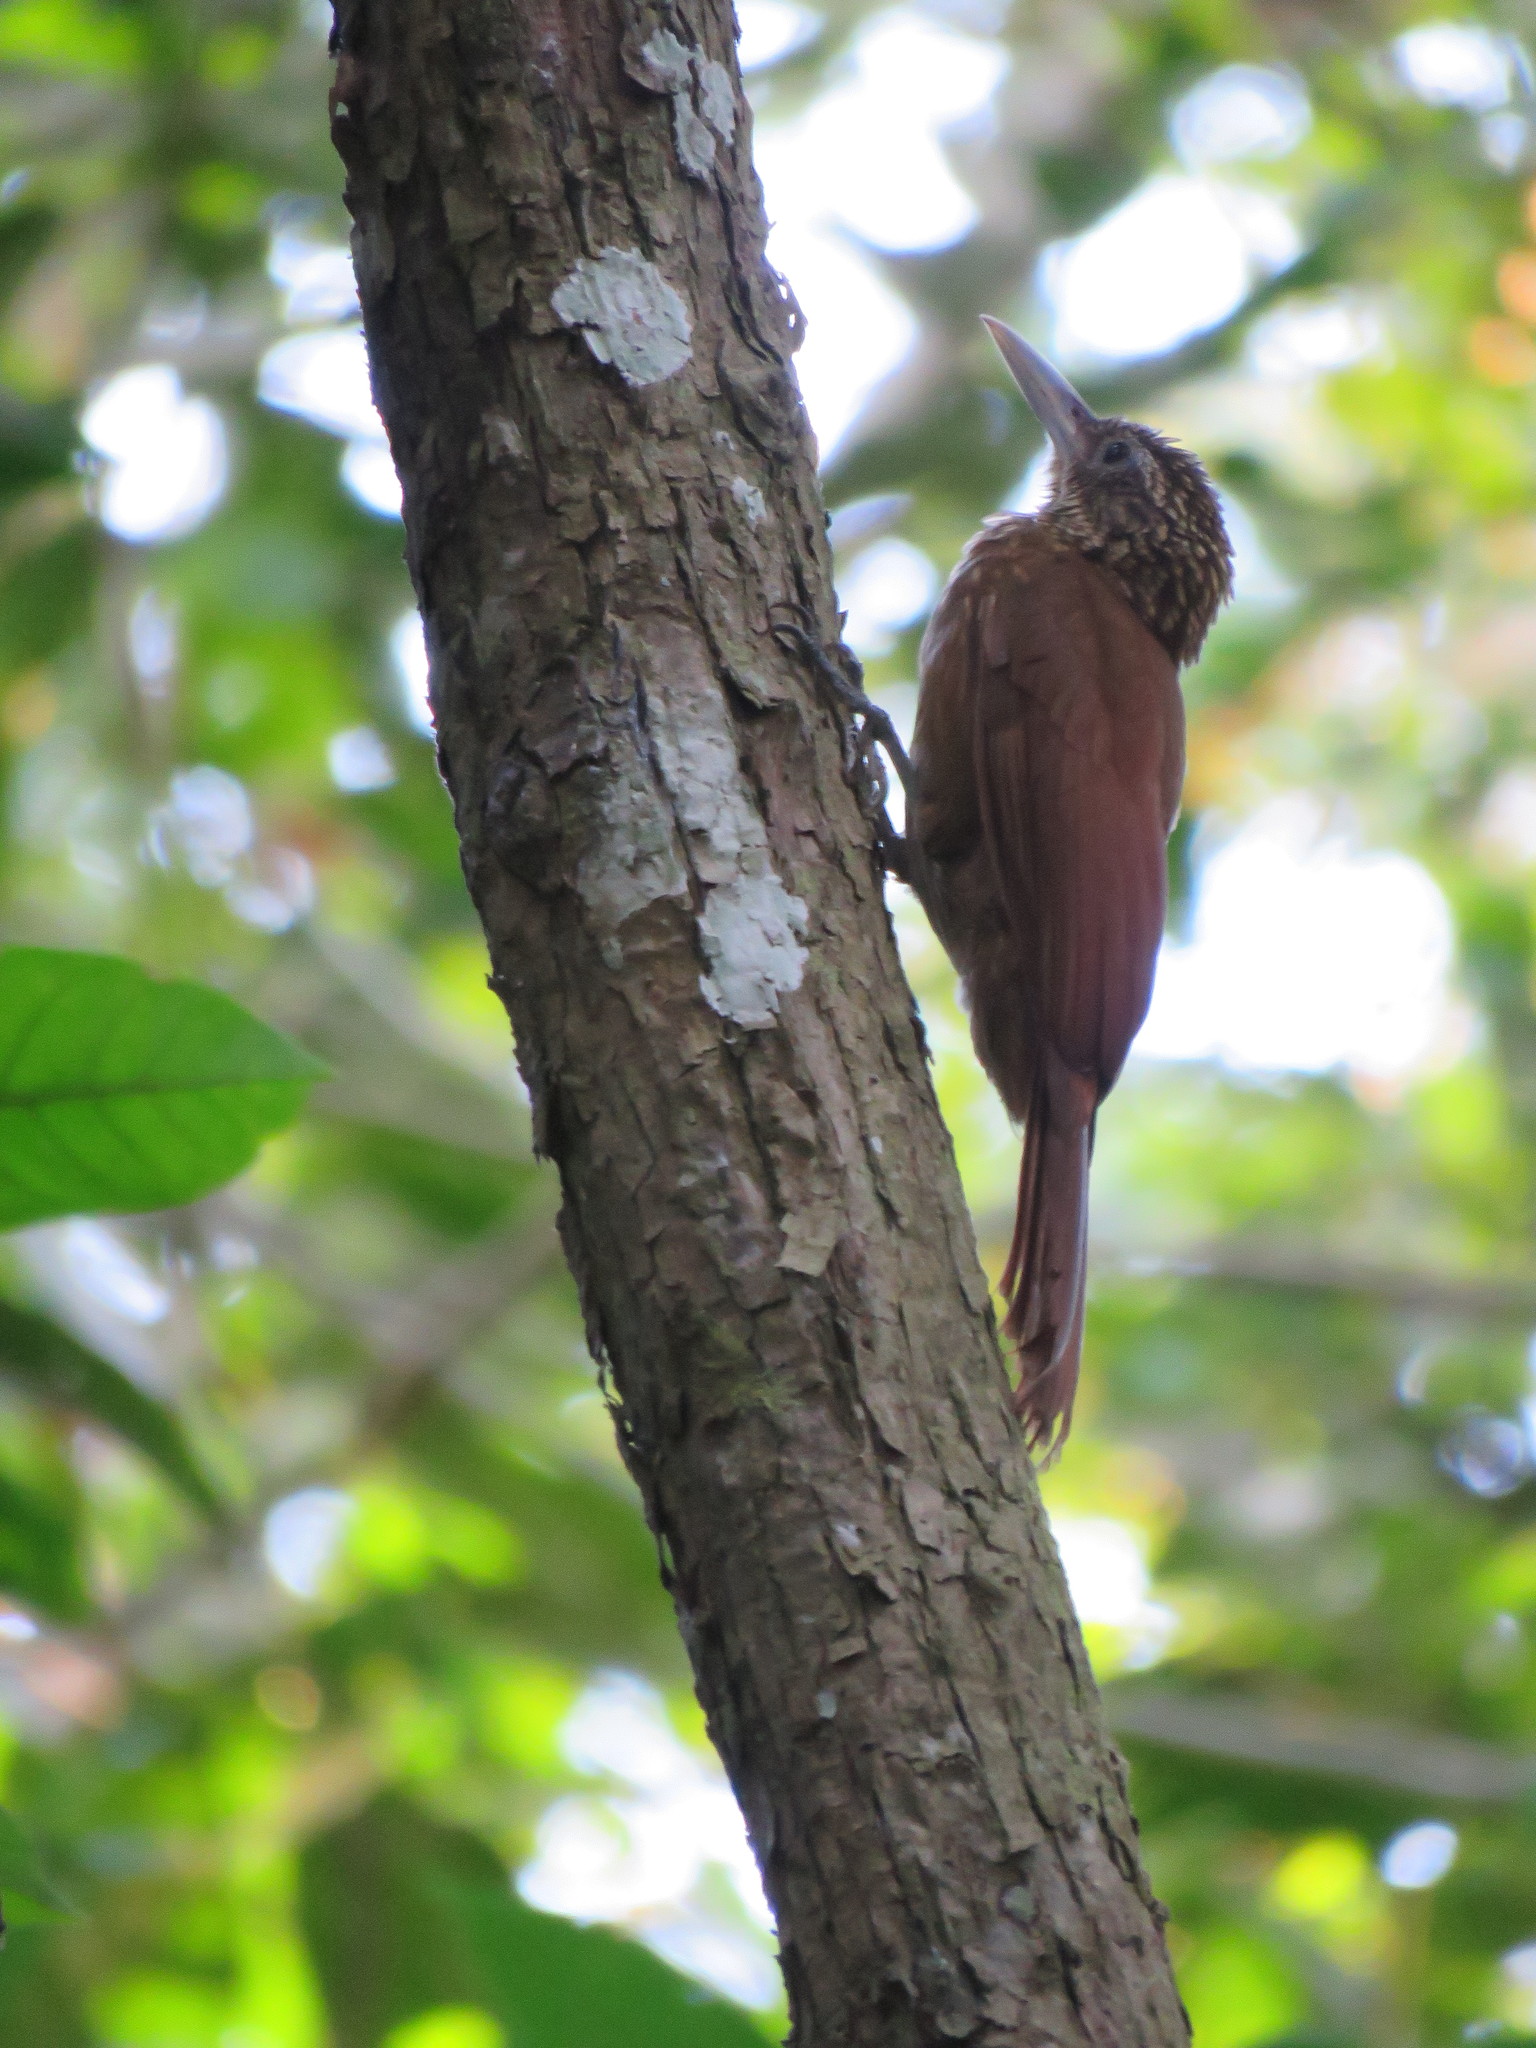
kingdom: Animalia
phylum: Chordata
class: Aves
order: Passeriformes
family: Furnariidae
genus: Xiphorhynchus
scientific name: Xiphorhynchus elegans
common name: Elegant woodcreeper
